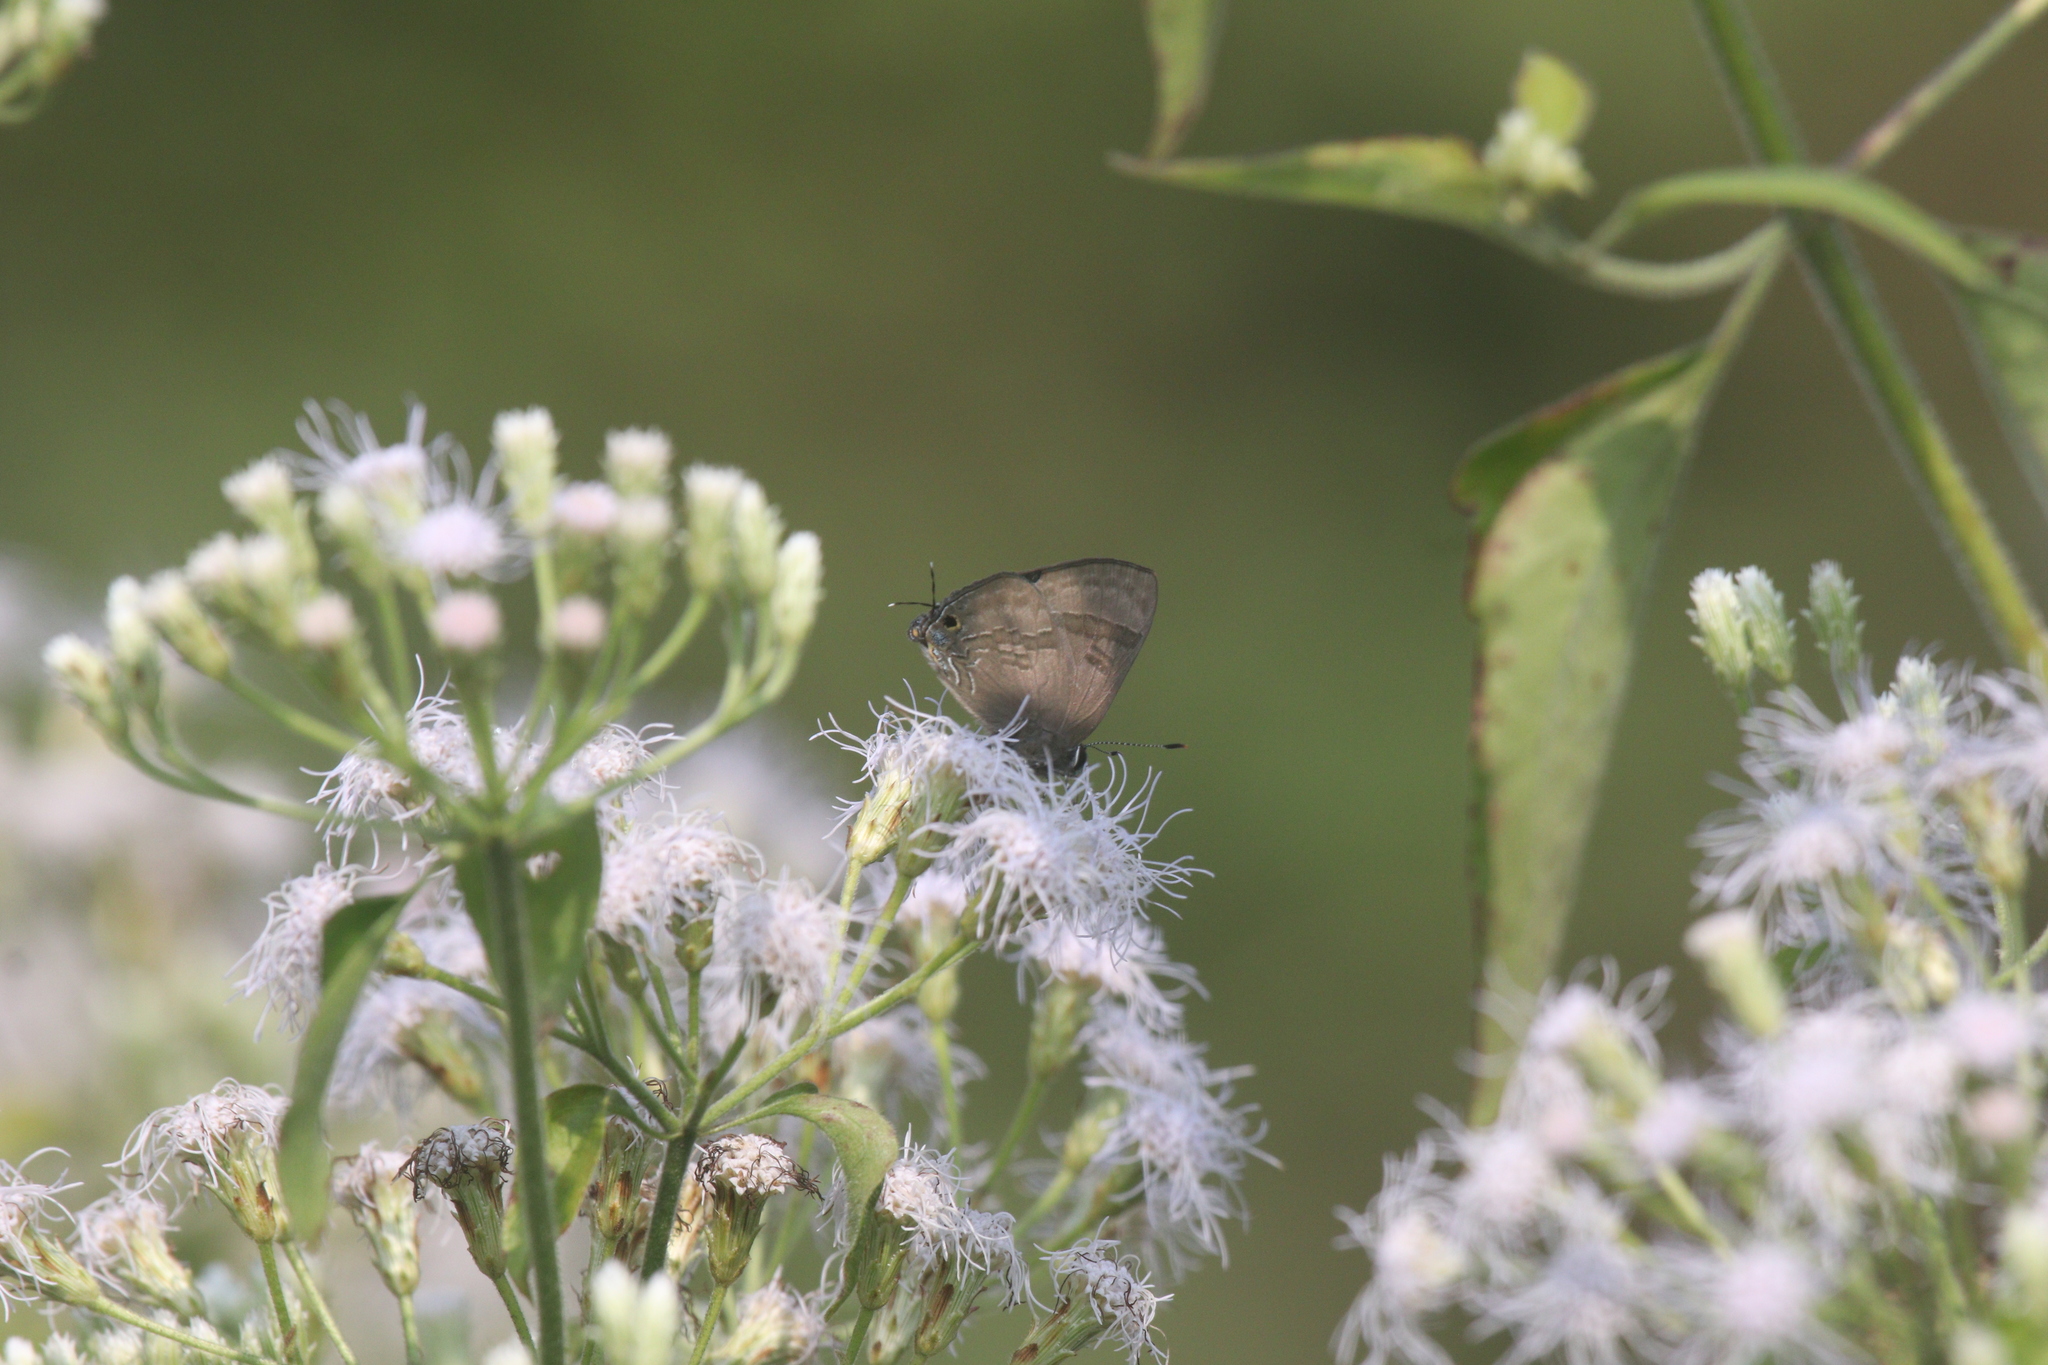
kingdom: Animalia
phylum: Arthropoda
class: Insecta
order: Lepidoptera
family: Lycaenidae
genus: Rapala
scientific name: Rapala varuna
